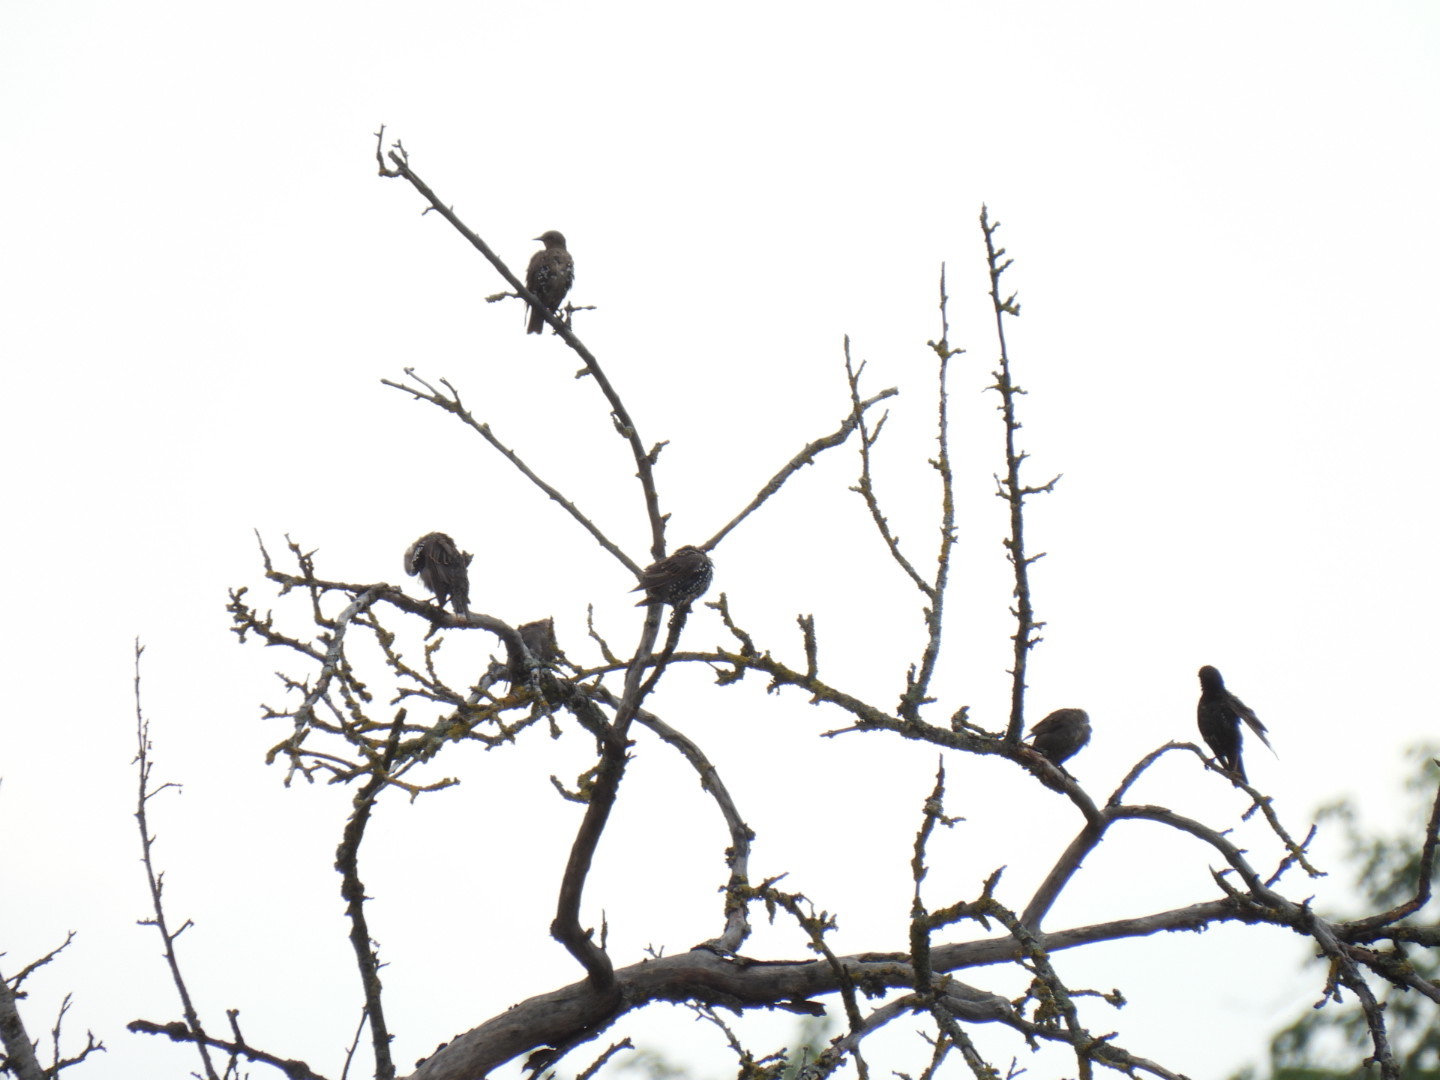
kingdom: Animalia
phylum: Chordata
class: Aves
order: Passeriformes
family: Sturnidae
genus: Sturnus
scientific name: Sturnus vulgaris
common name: Common starling
